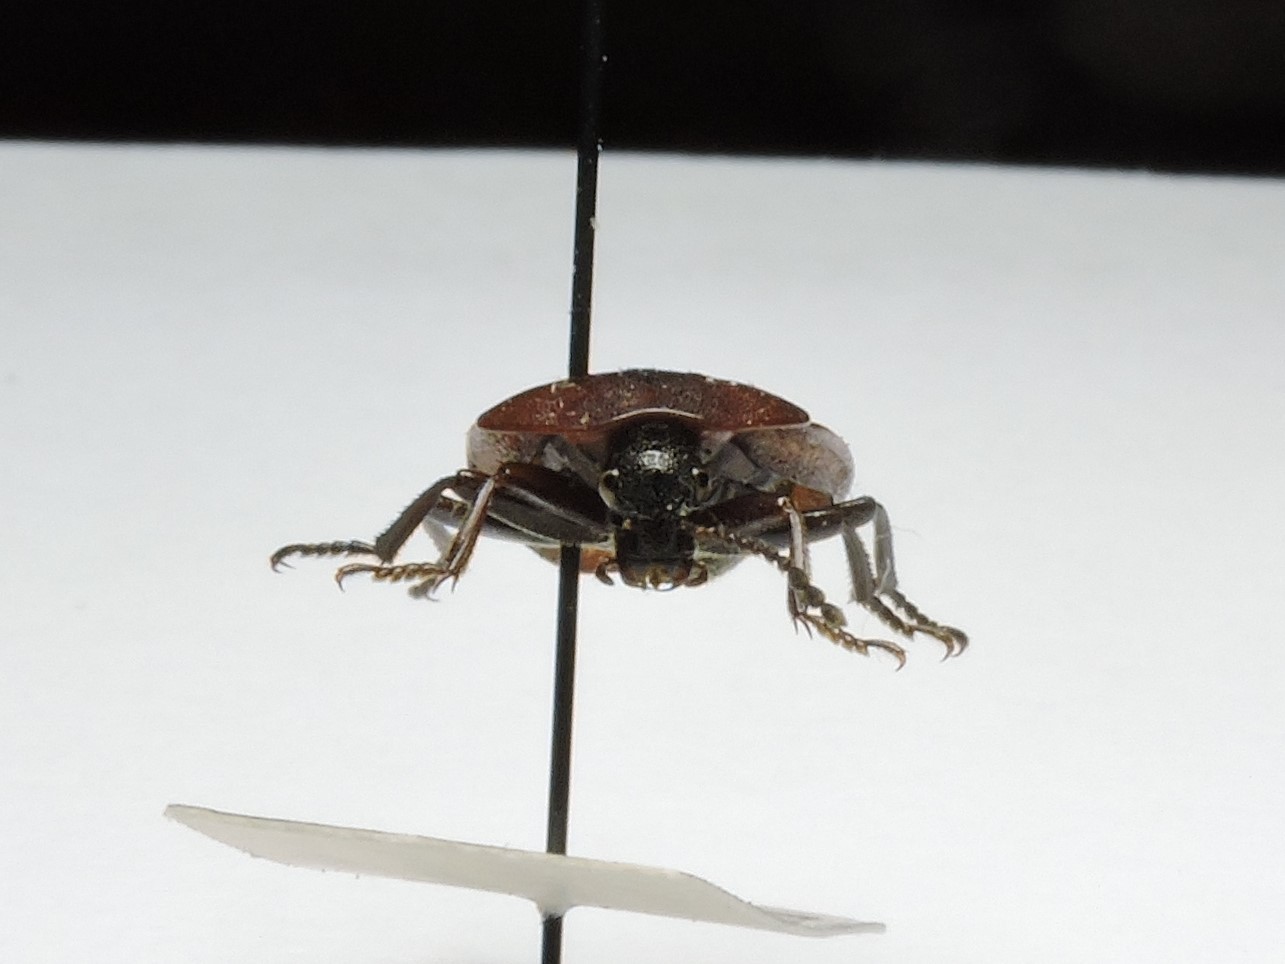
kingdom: Animalia
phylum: Arthropoda
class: Insecta
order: Coleoptera
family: Staphylinidae
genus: Silpha
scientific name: Silpha atrata
